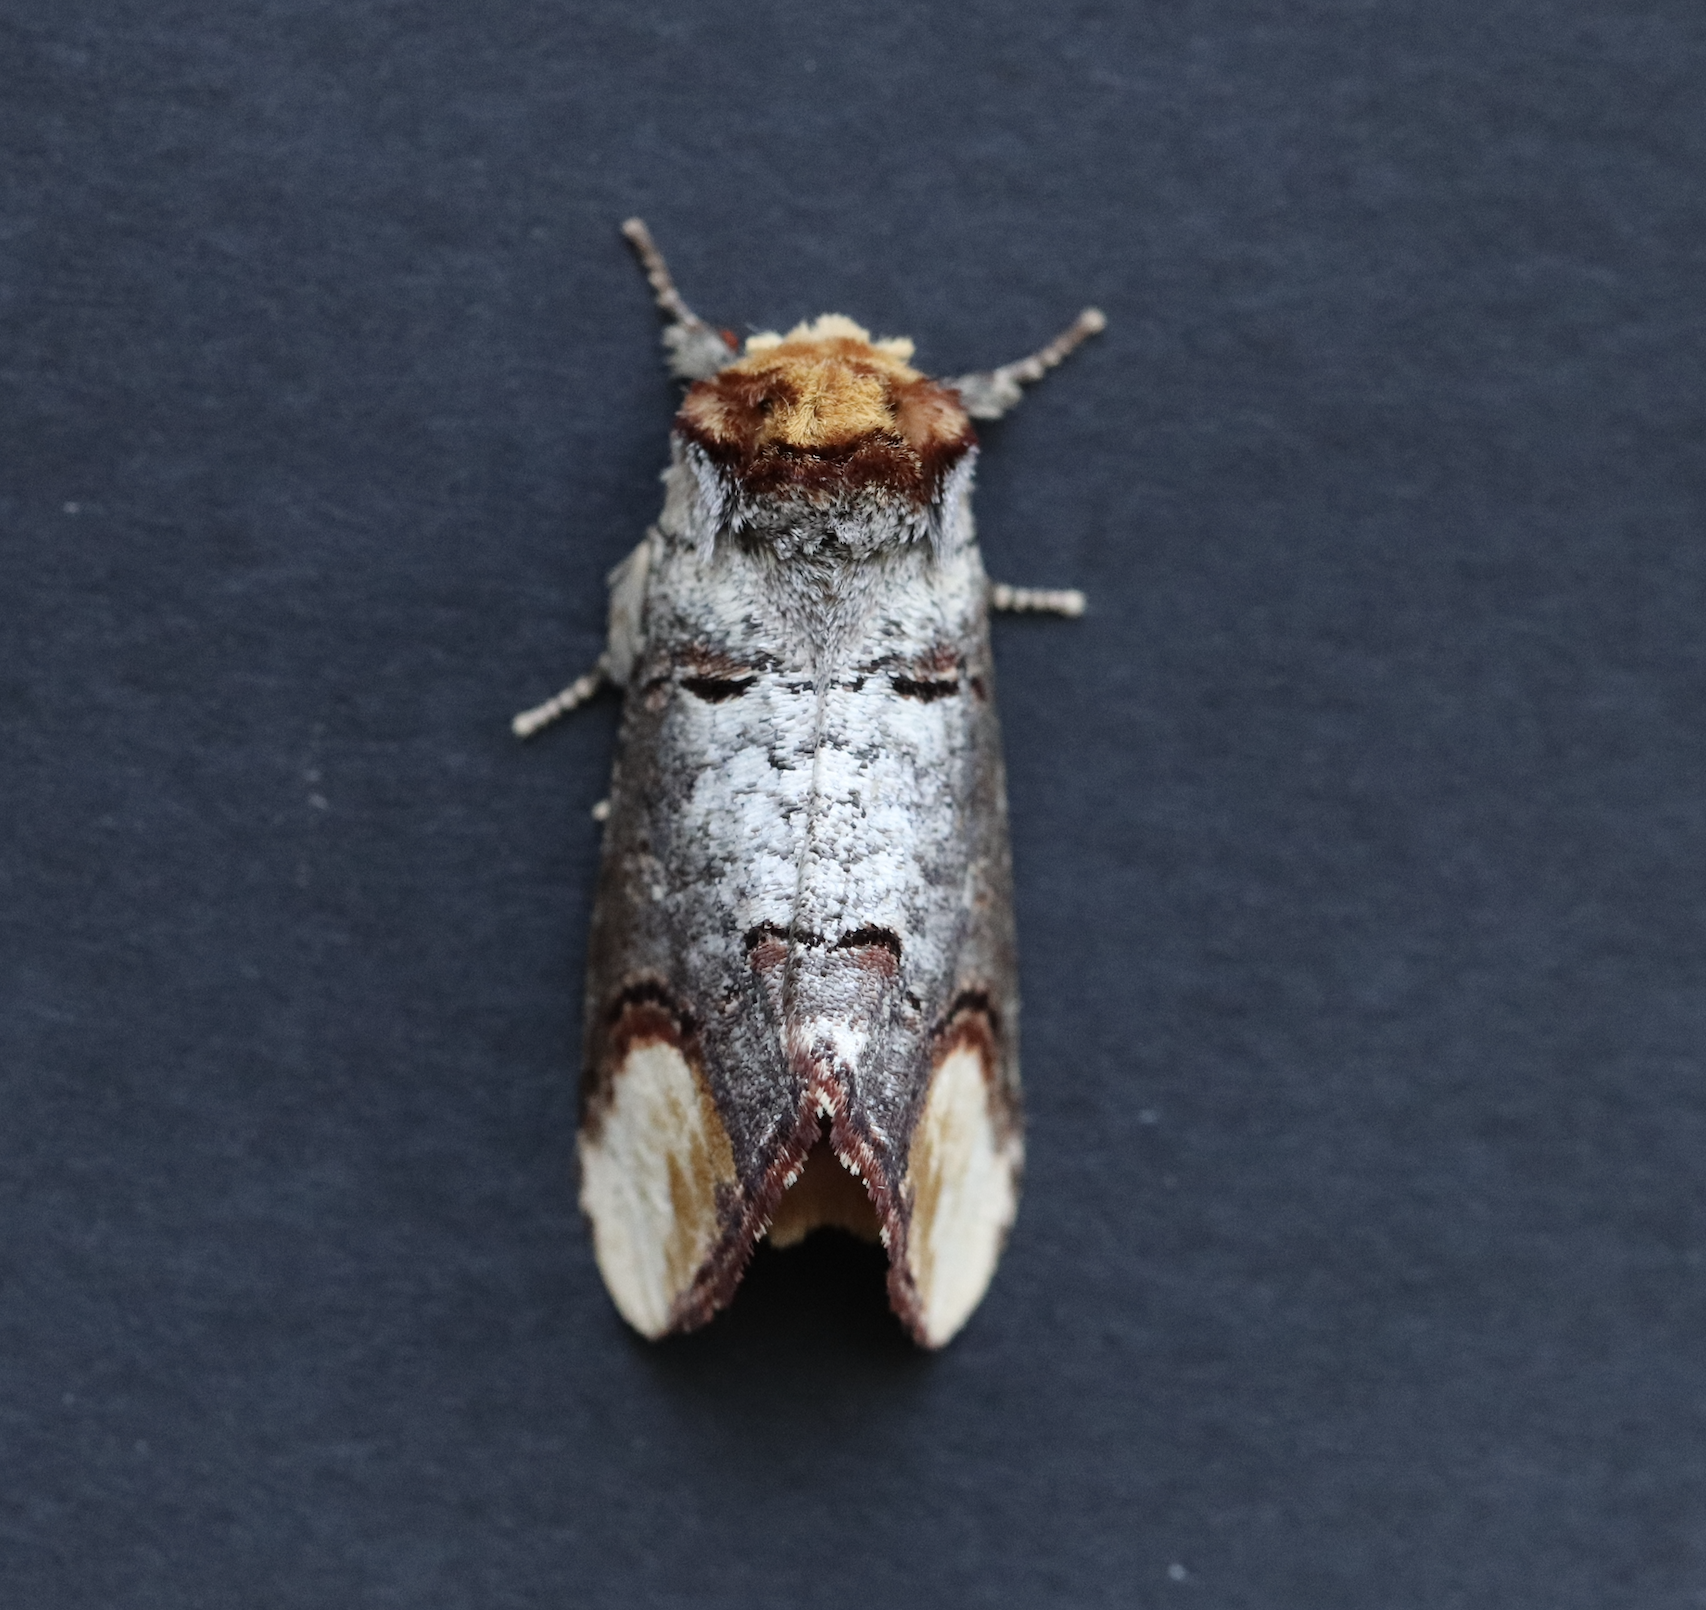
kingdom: Animalia
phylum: Arthropoda
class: Insecta
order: Lepidoptera
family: Notodontidae
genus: Phalera
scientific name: Phalera bucephala
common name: Buff-tip
